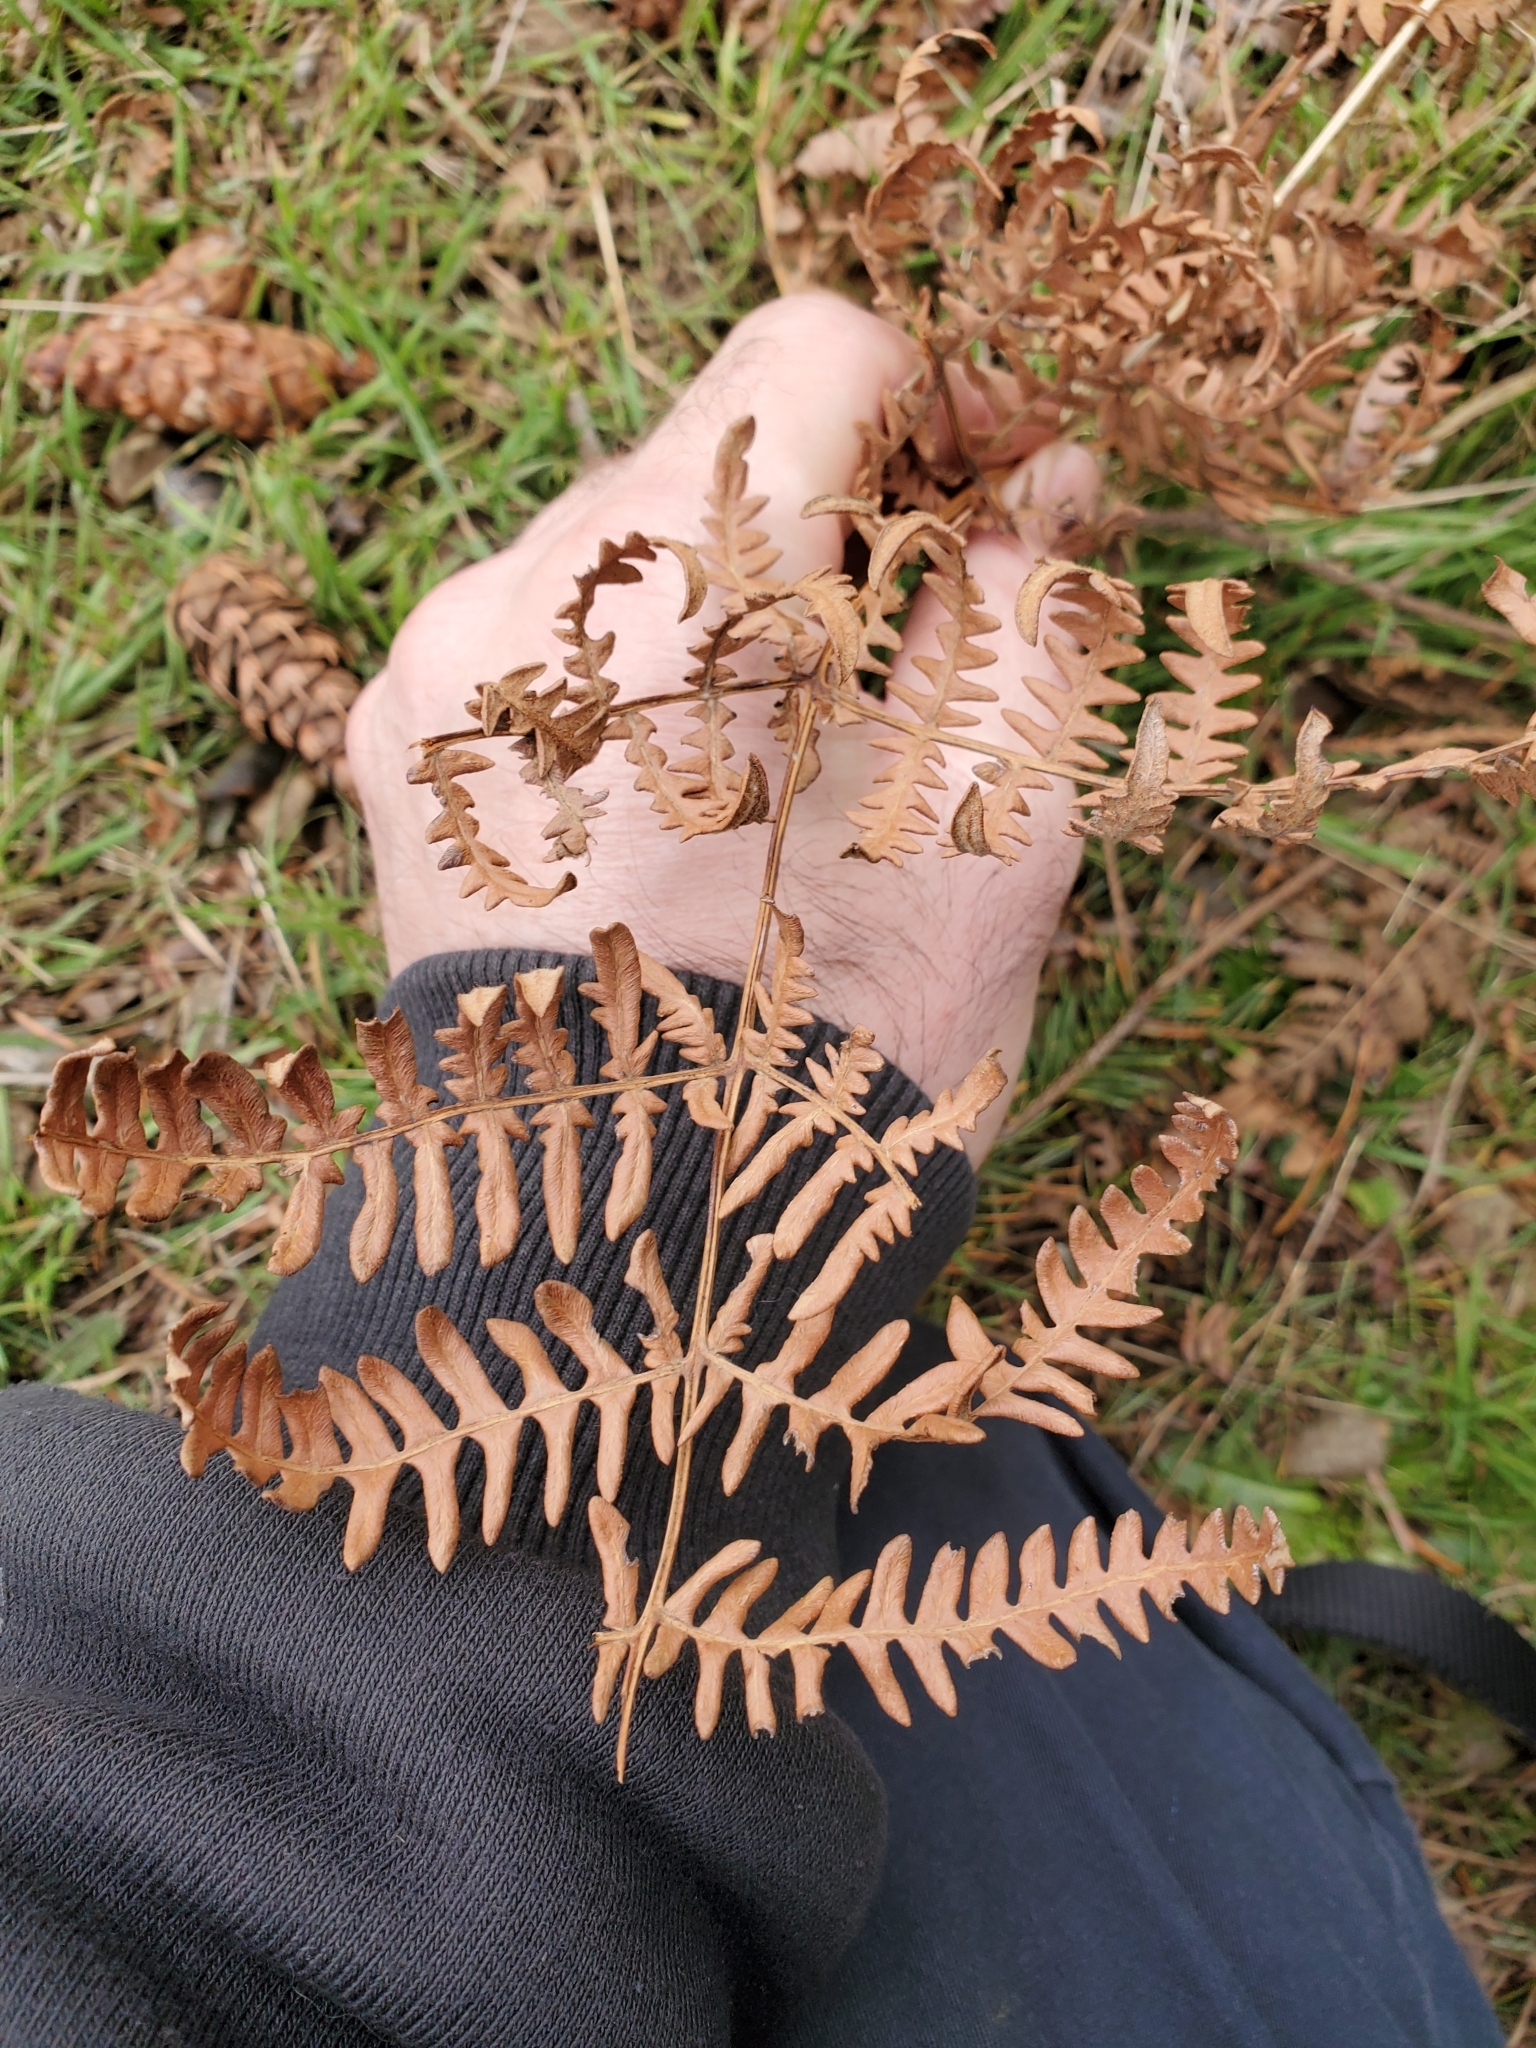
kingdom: Plantae
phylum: Tracheophyta
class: Polypodiopsida
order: Polypodiales
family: Dennstaedtiaceae
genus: Pteridium
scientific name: Pteridium aquilinum
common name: Bracken
